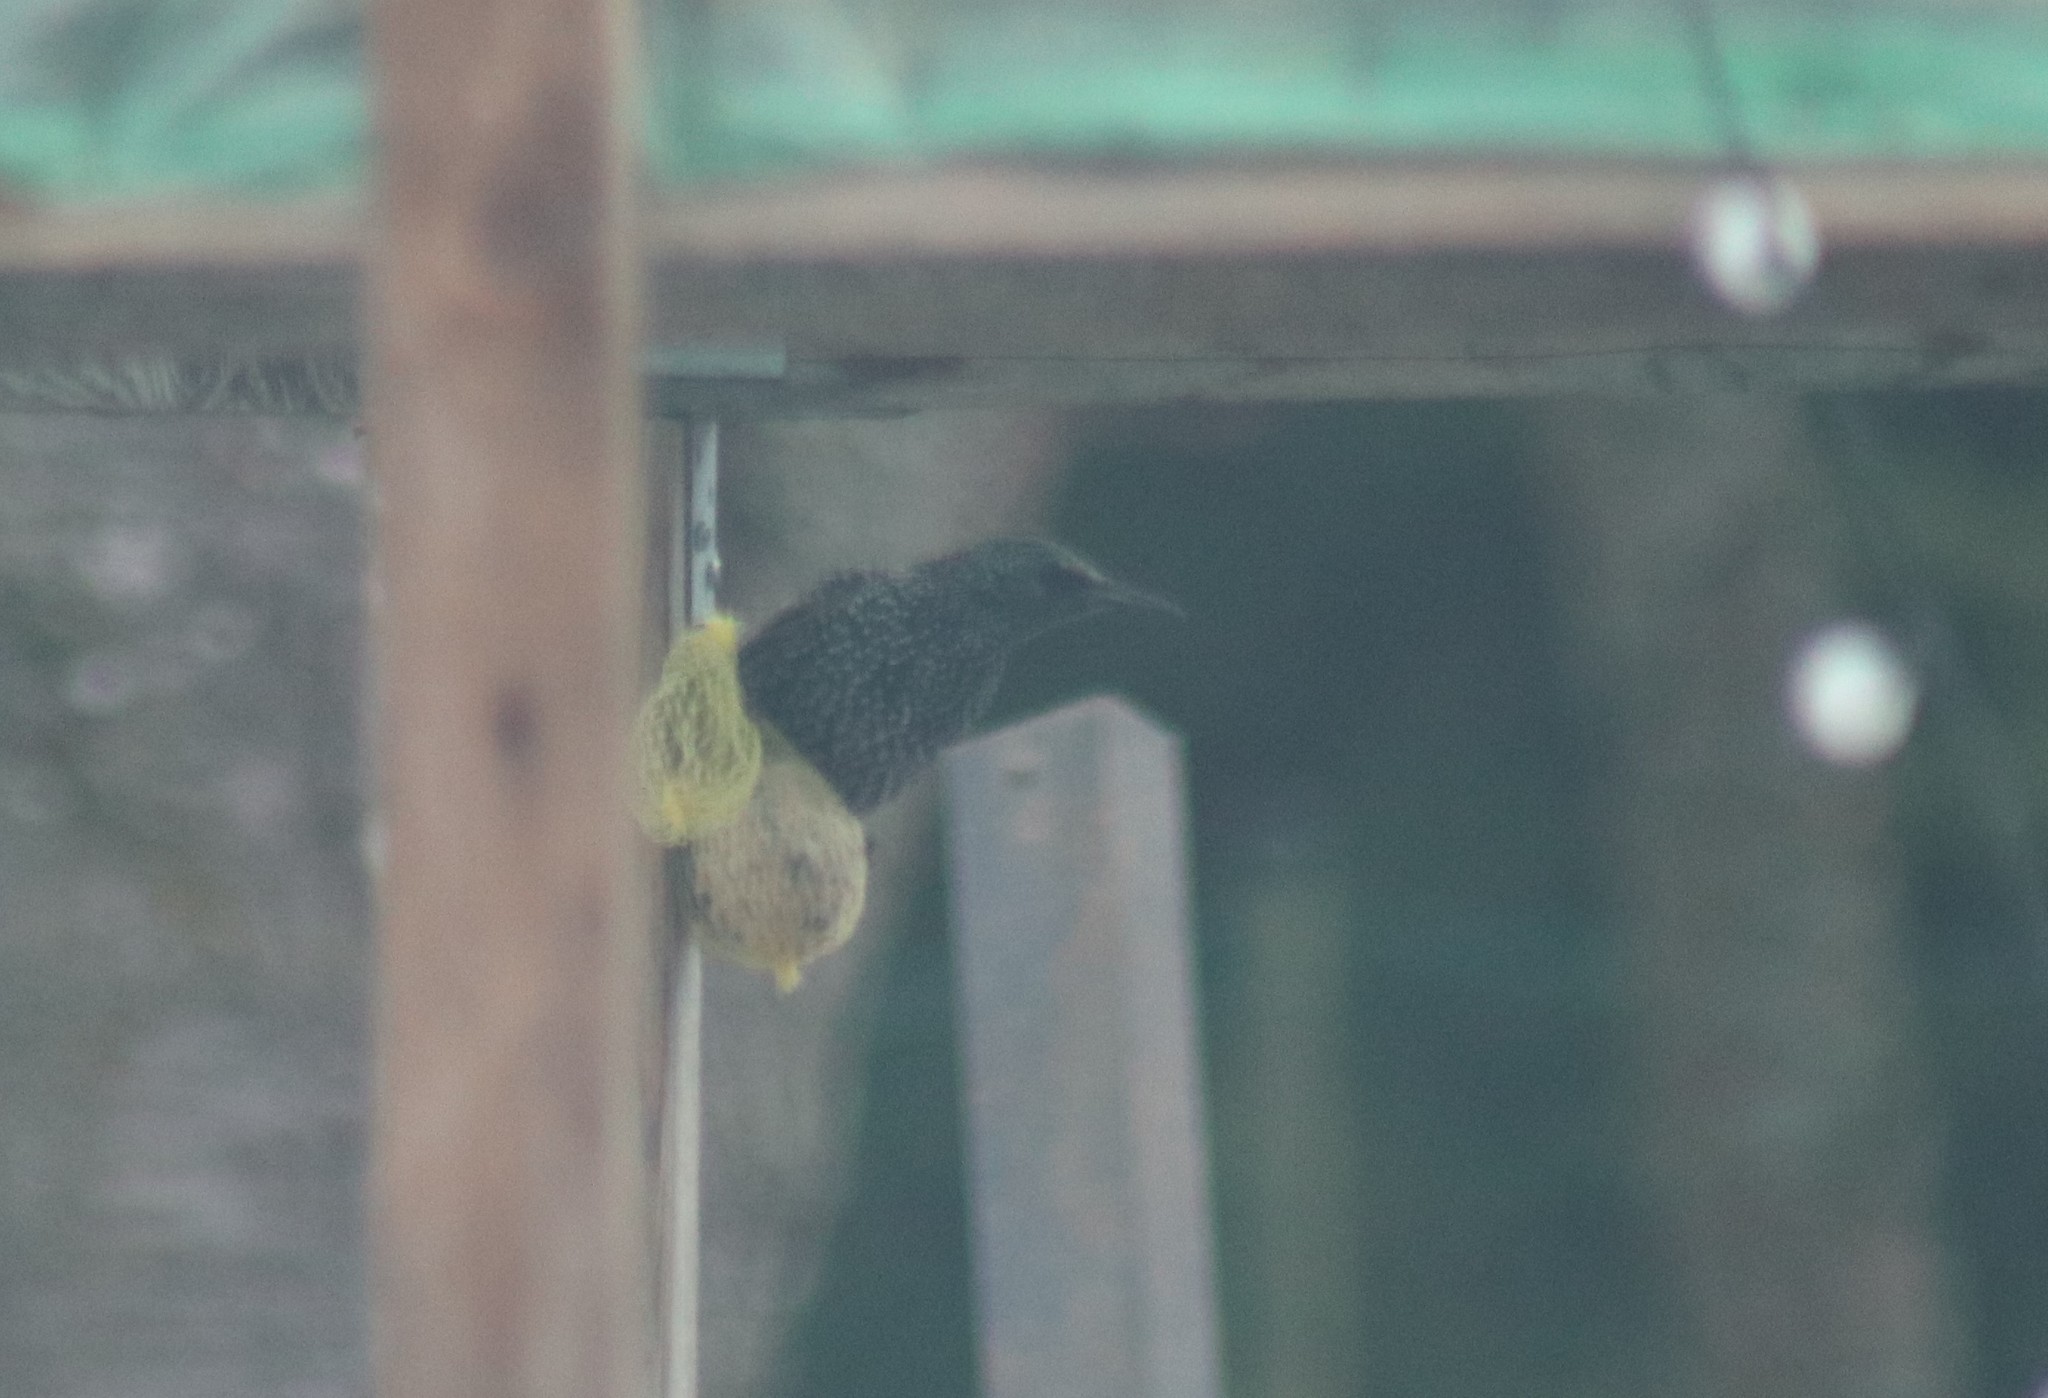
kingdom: Animalia
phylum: Chordata
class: Aves
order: Passeriformes
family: Sturnidae
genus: Sturnus
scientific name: Sturnus vulgaris
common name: Common starling
